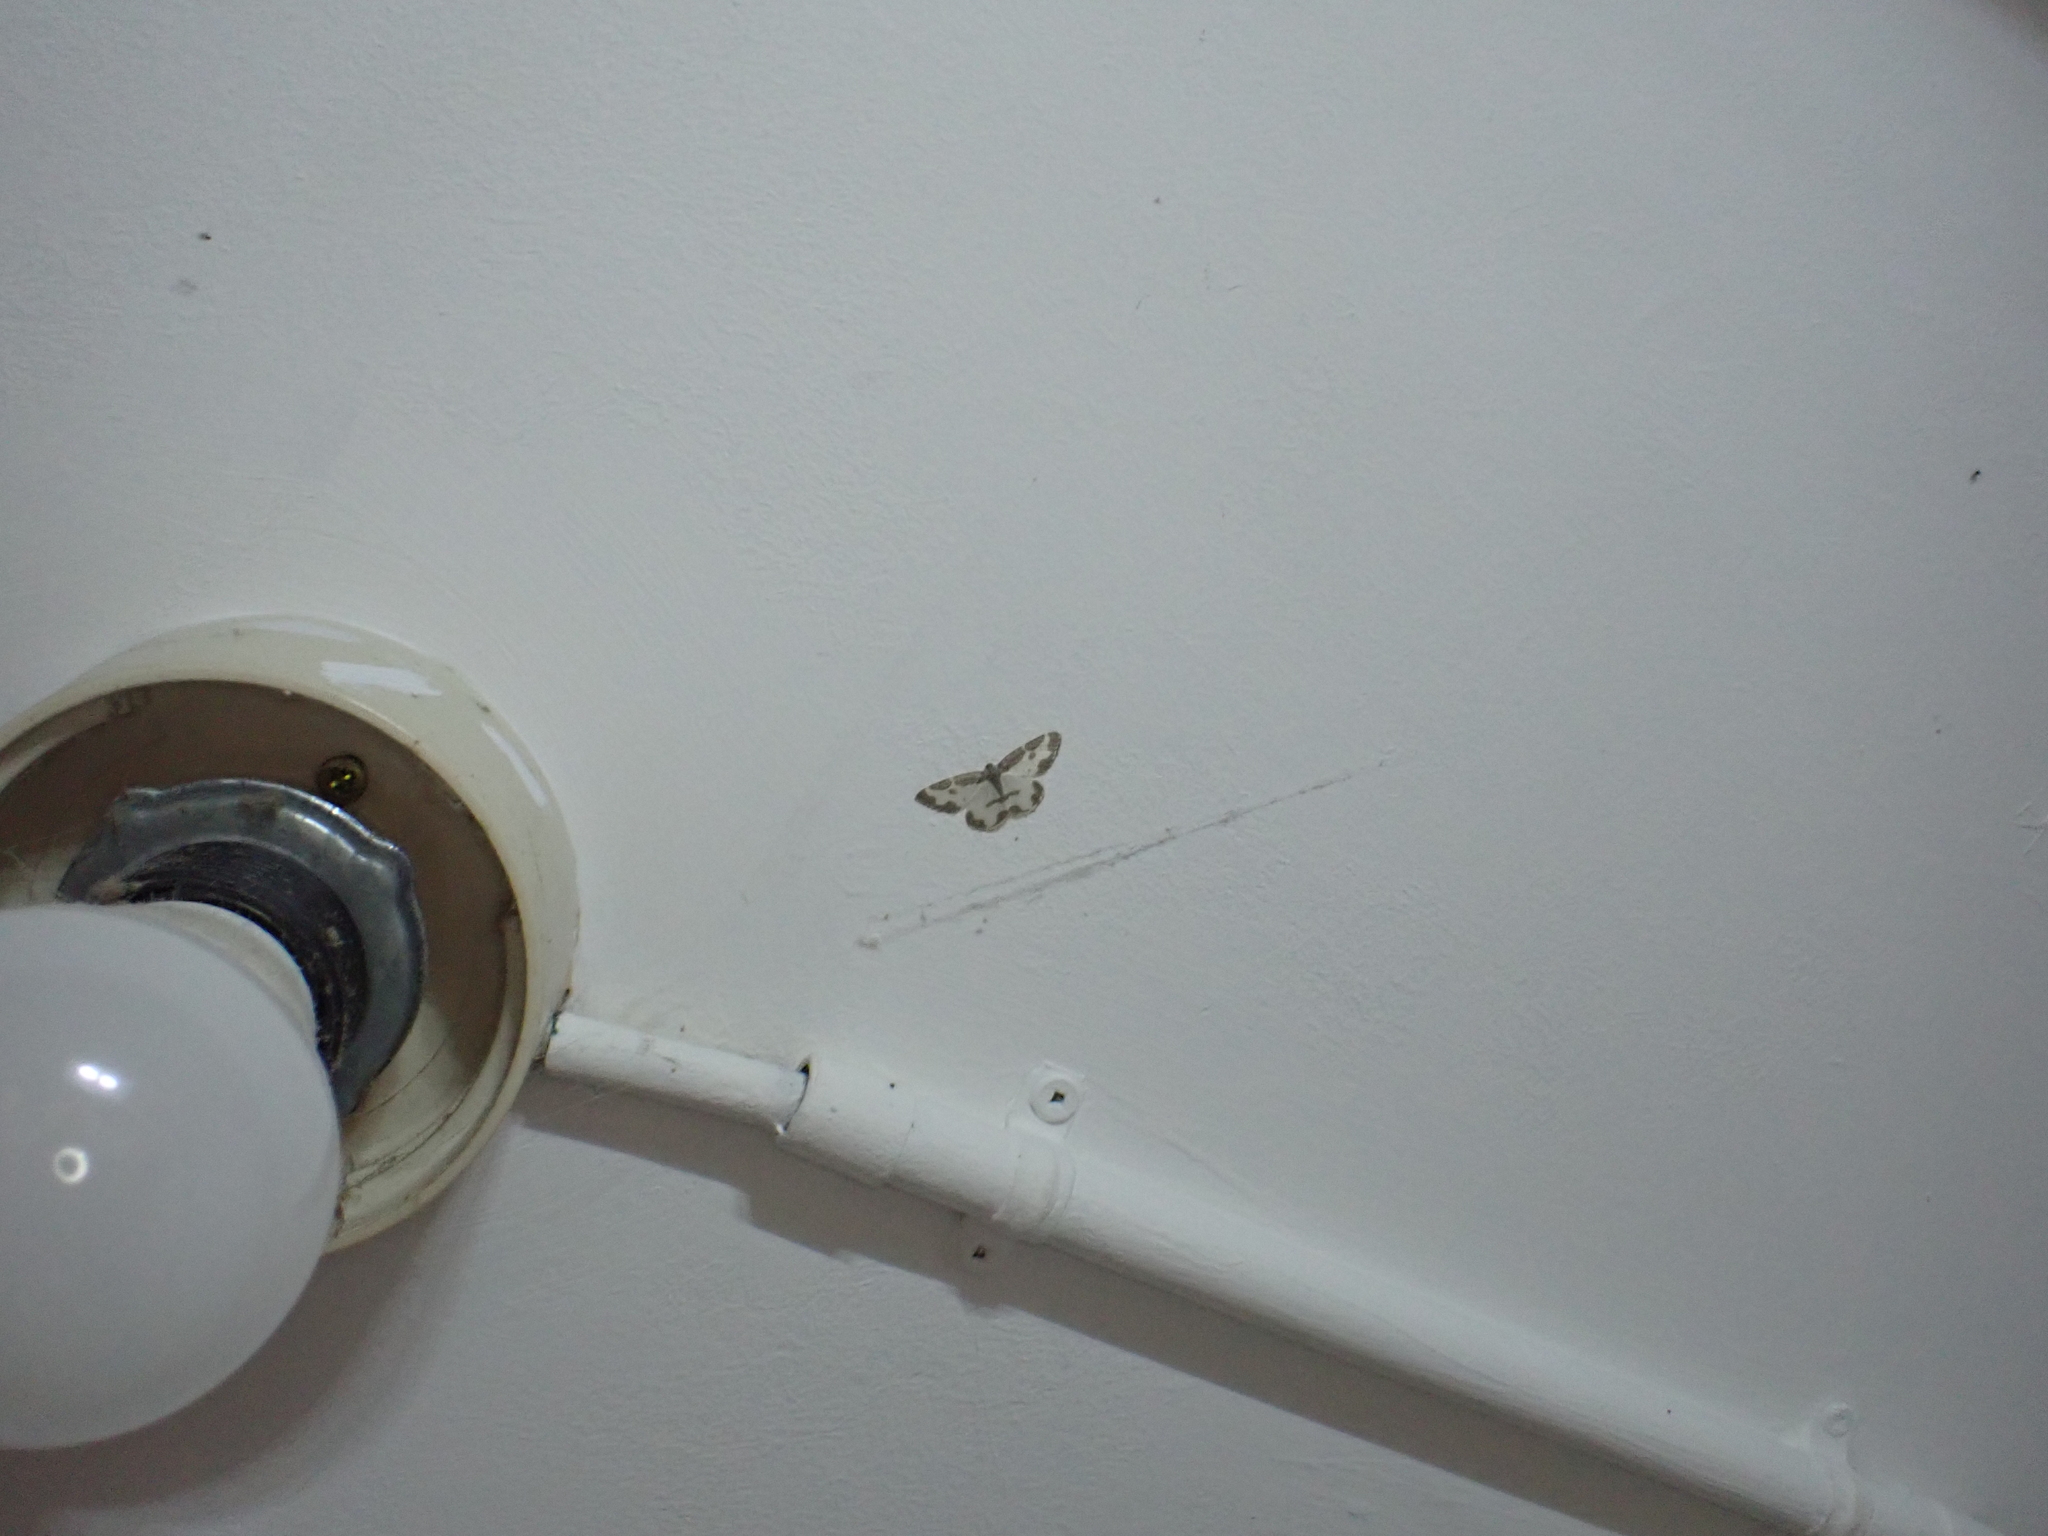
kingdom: Animalia
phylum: Arthropoda
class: Insecta
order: Lepidoptera
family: Geometridae
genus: Lomaspilis
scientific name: Lomaspilis marginata
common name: Clouded border
